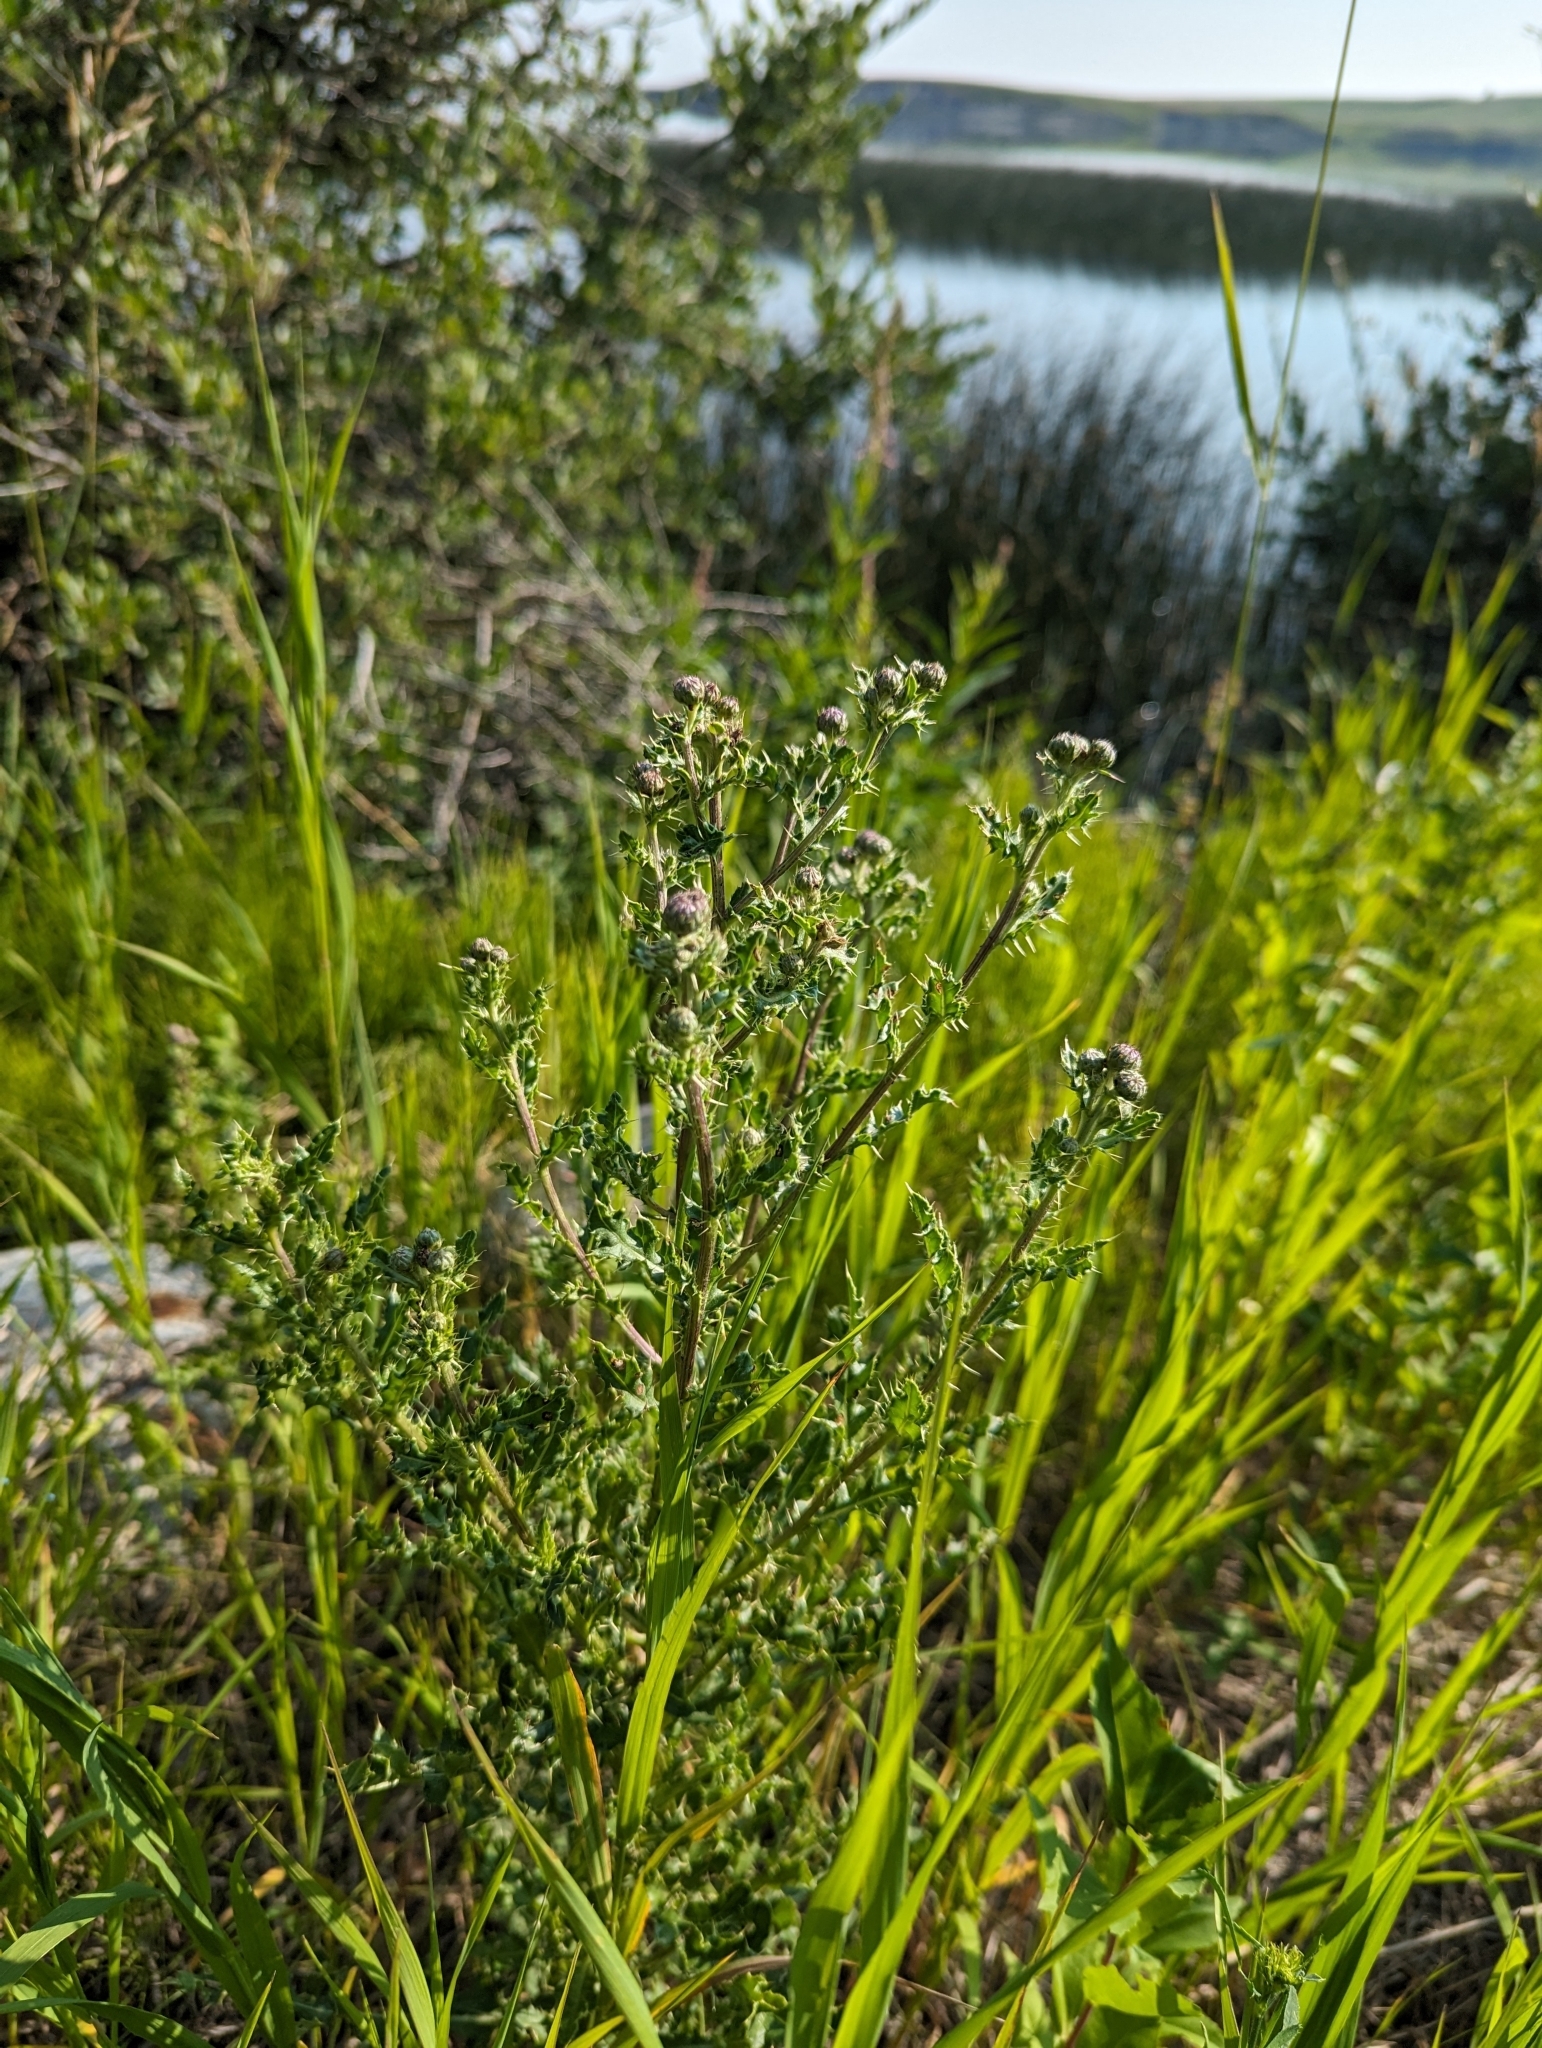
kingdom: Plantae
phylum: Tracheophyta
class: Magnoliopsida
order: Asterales
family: Asteraceae
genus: Cirsium
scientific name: Cirsium arvense
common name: Creeping thistle
